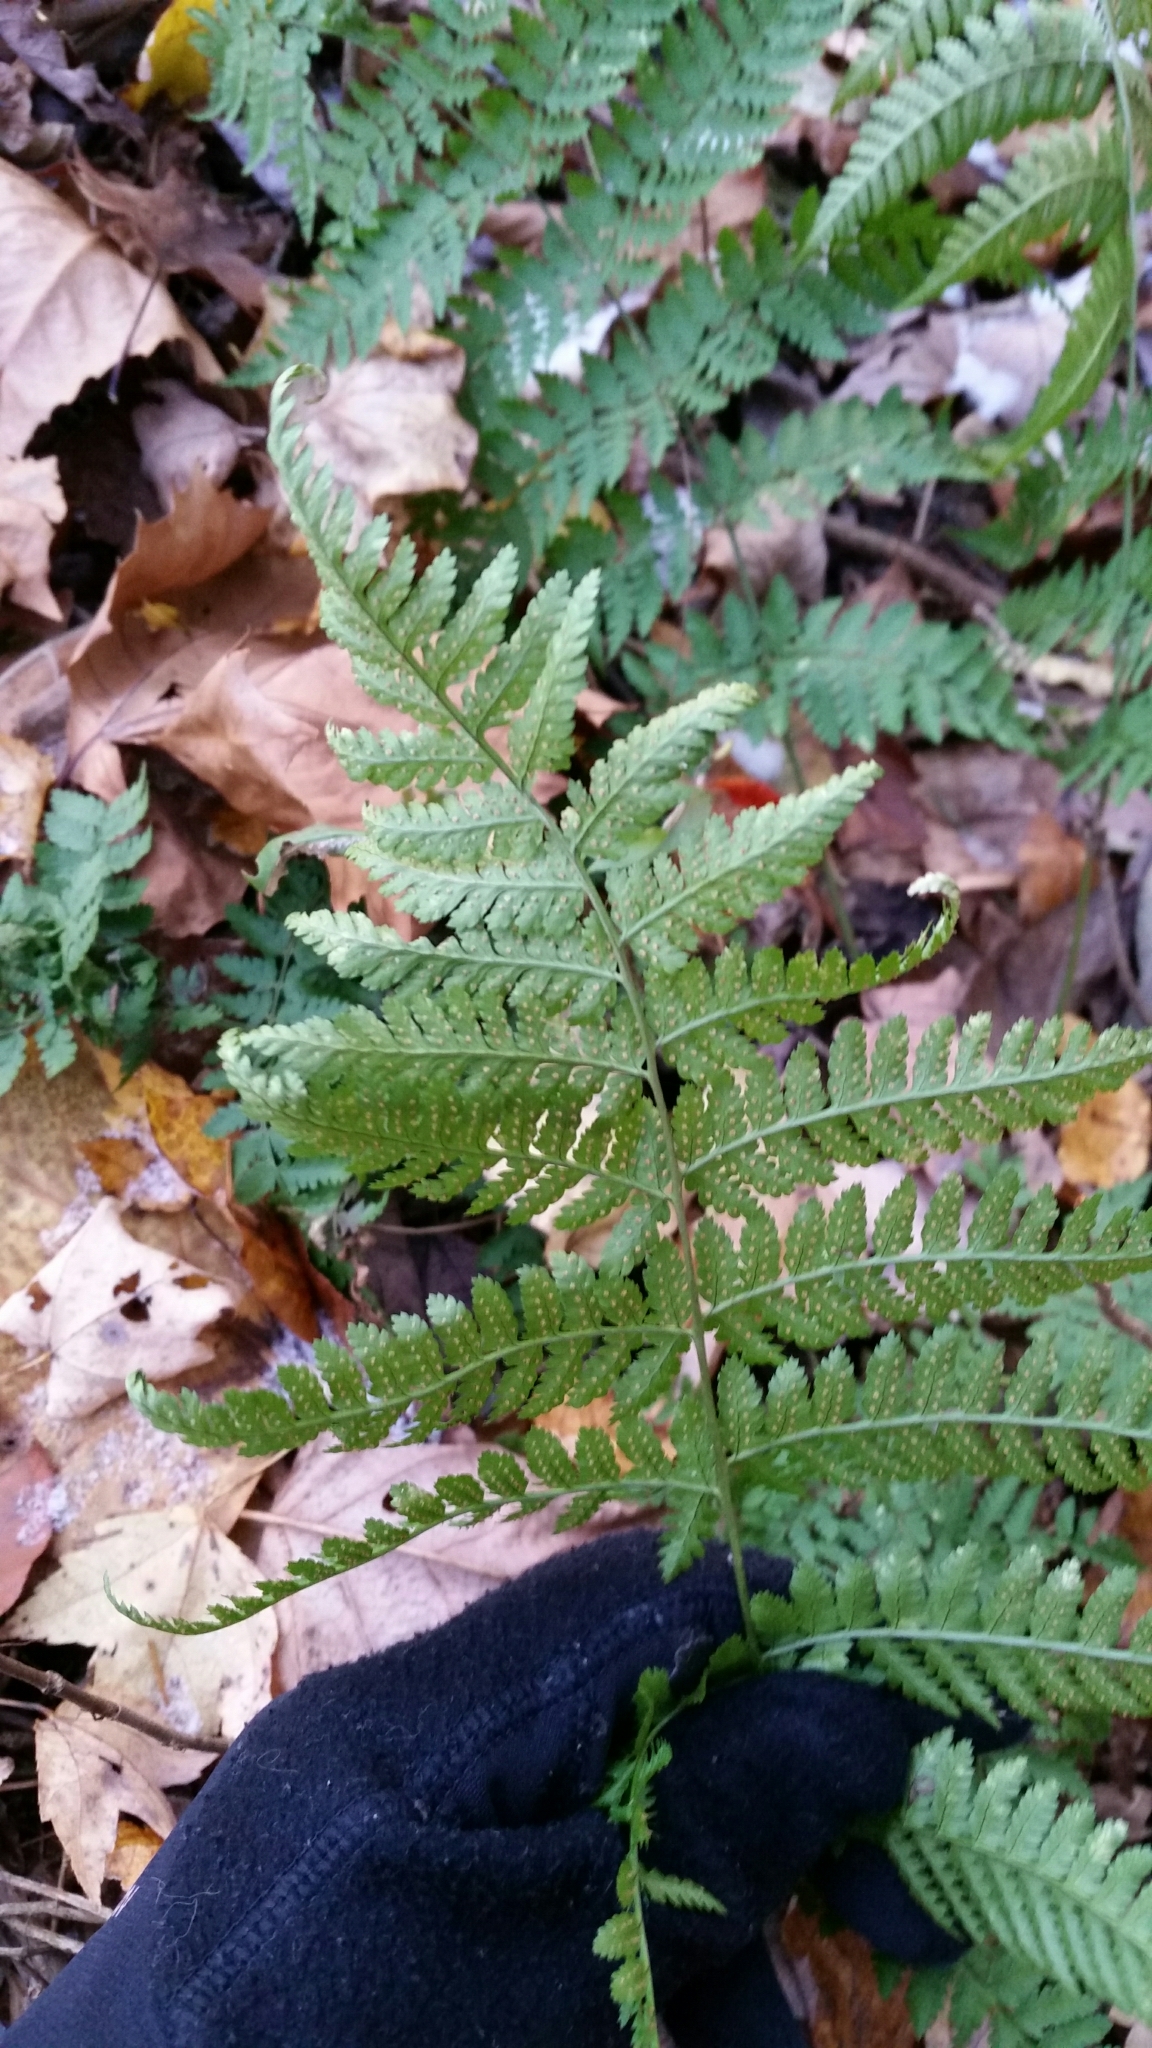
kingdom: Plantae
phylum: Tracheophyta
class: Polypodiopsida
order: Polypodiales
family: Dryopteridaceae
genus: Dryopteris
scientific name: Dryopteris intermedia
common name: Evergreen wood fern
